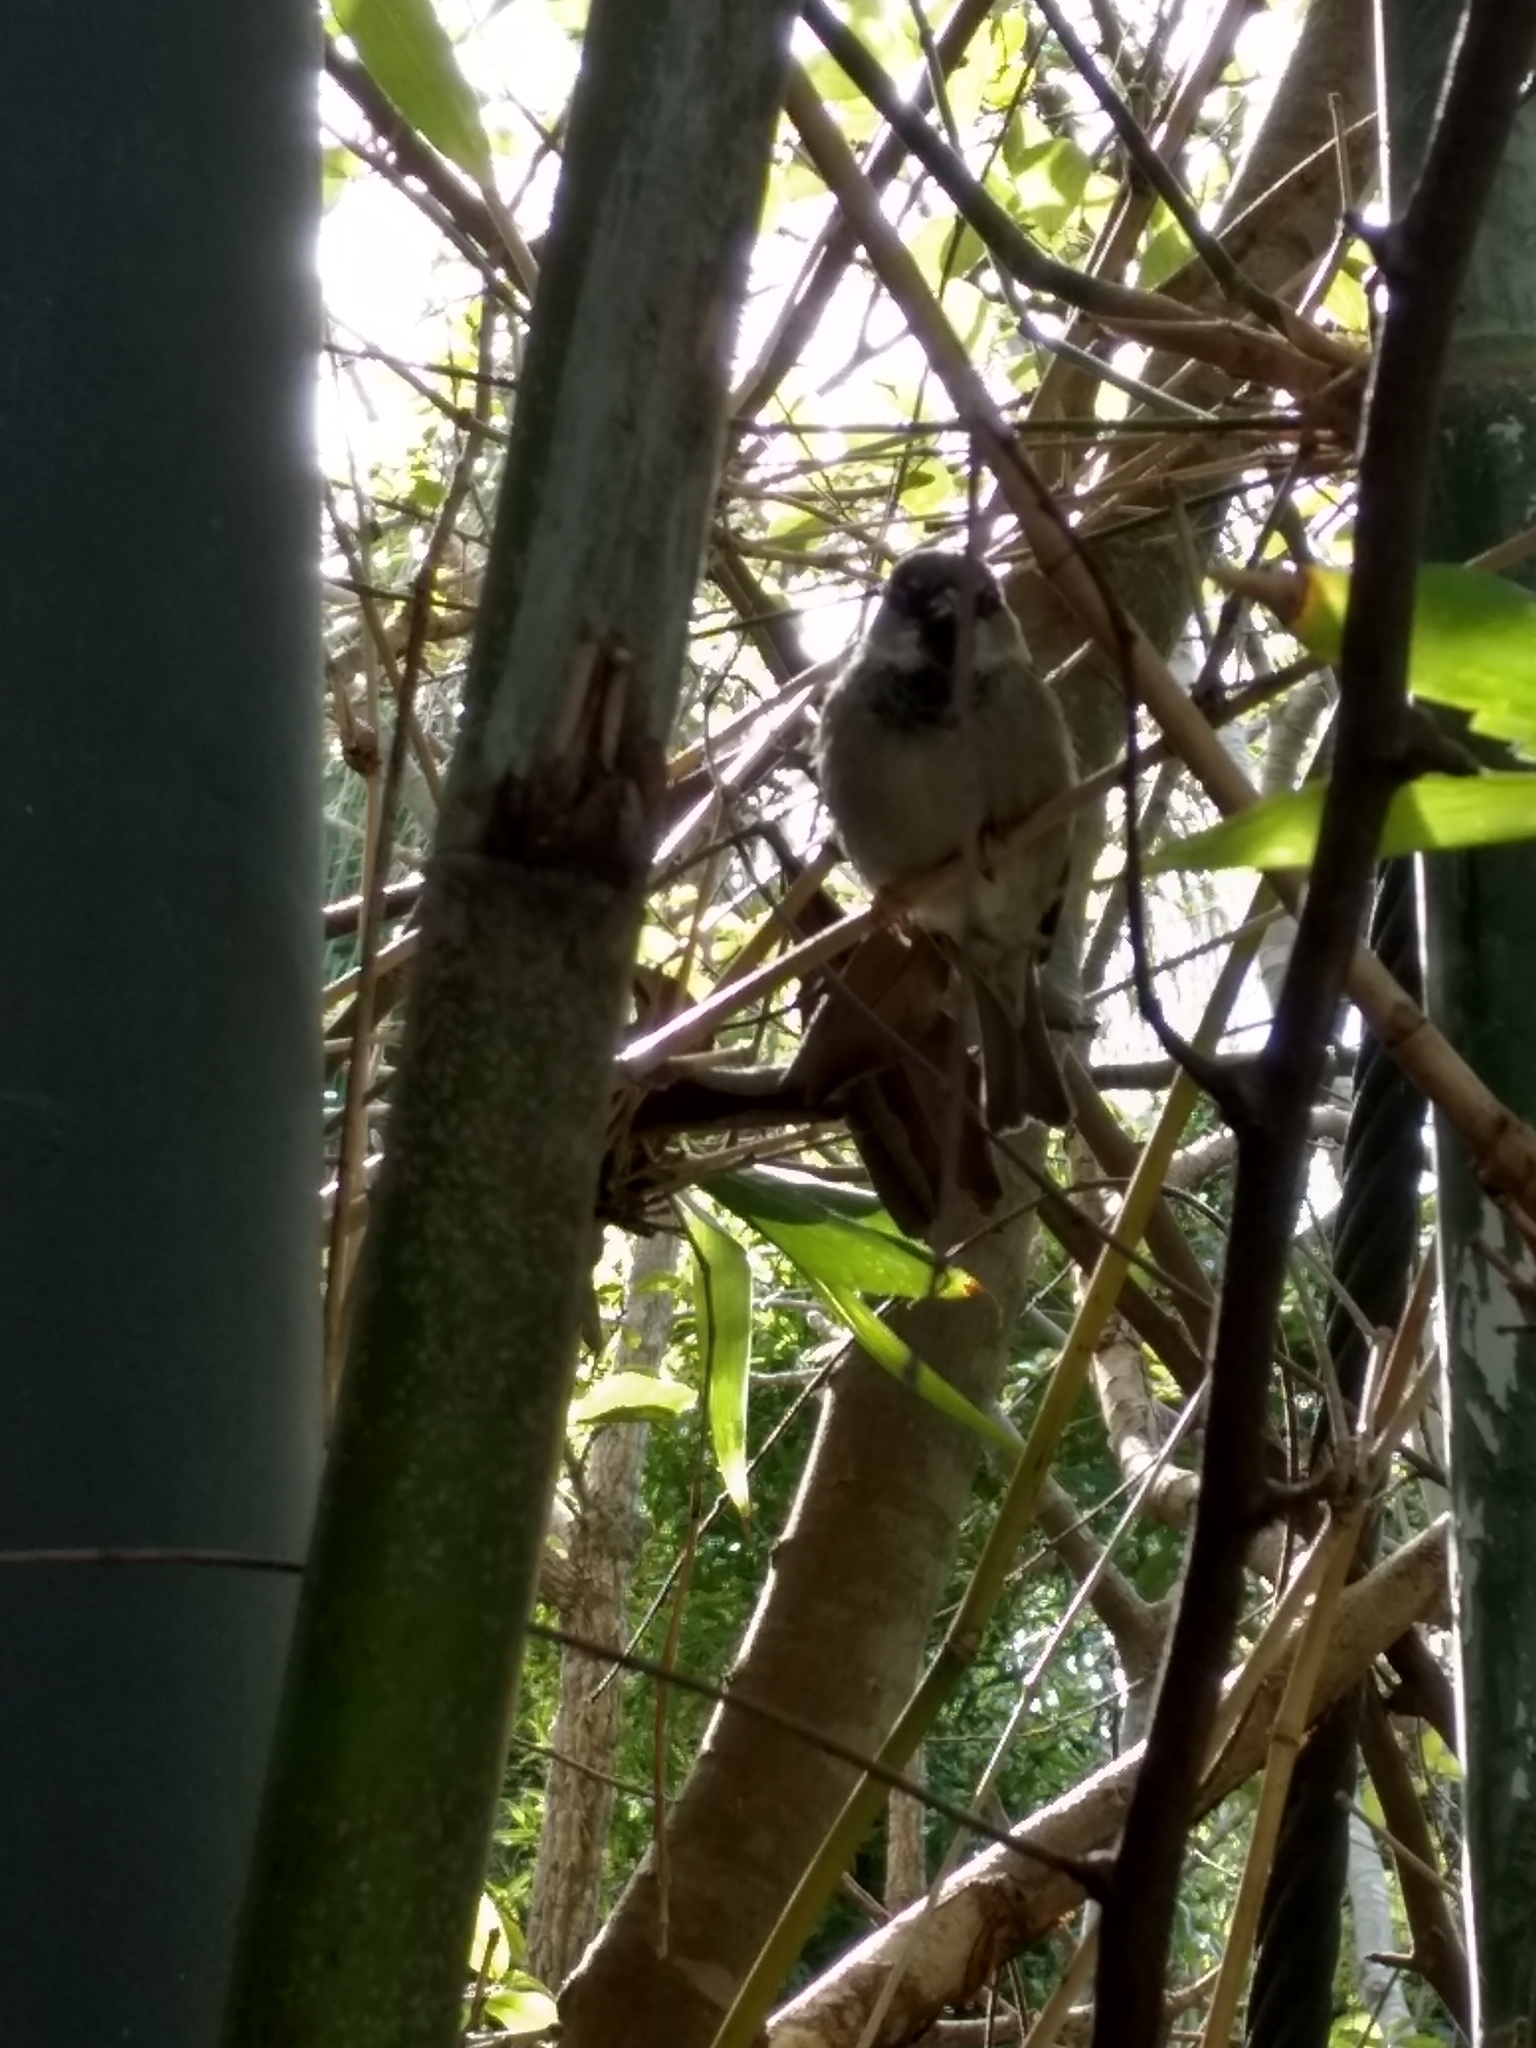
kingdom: Animalia
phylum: Chordata
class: Aves
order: Passeriformes
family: Passeridae
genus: Passer
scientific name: Passer domesticus
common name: House sparrow
